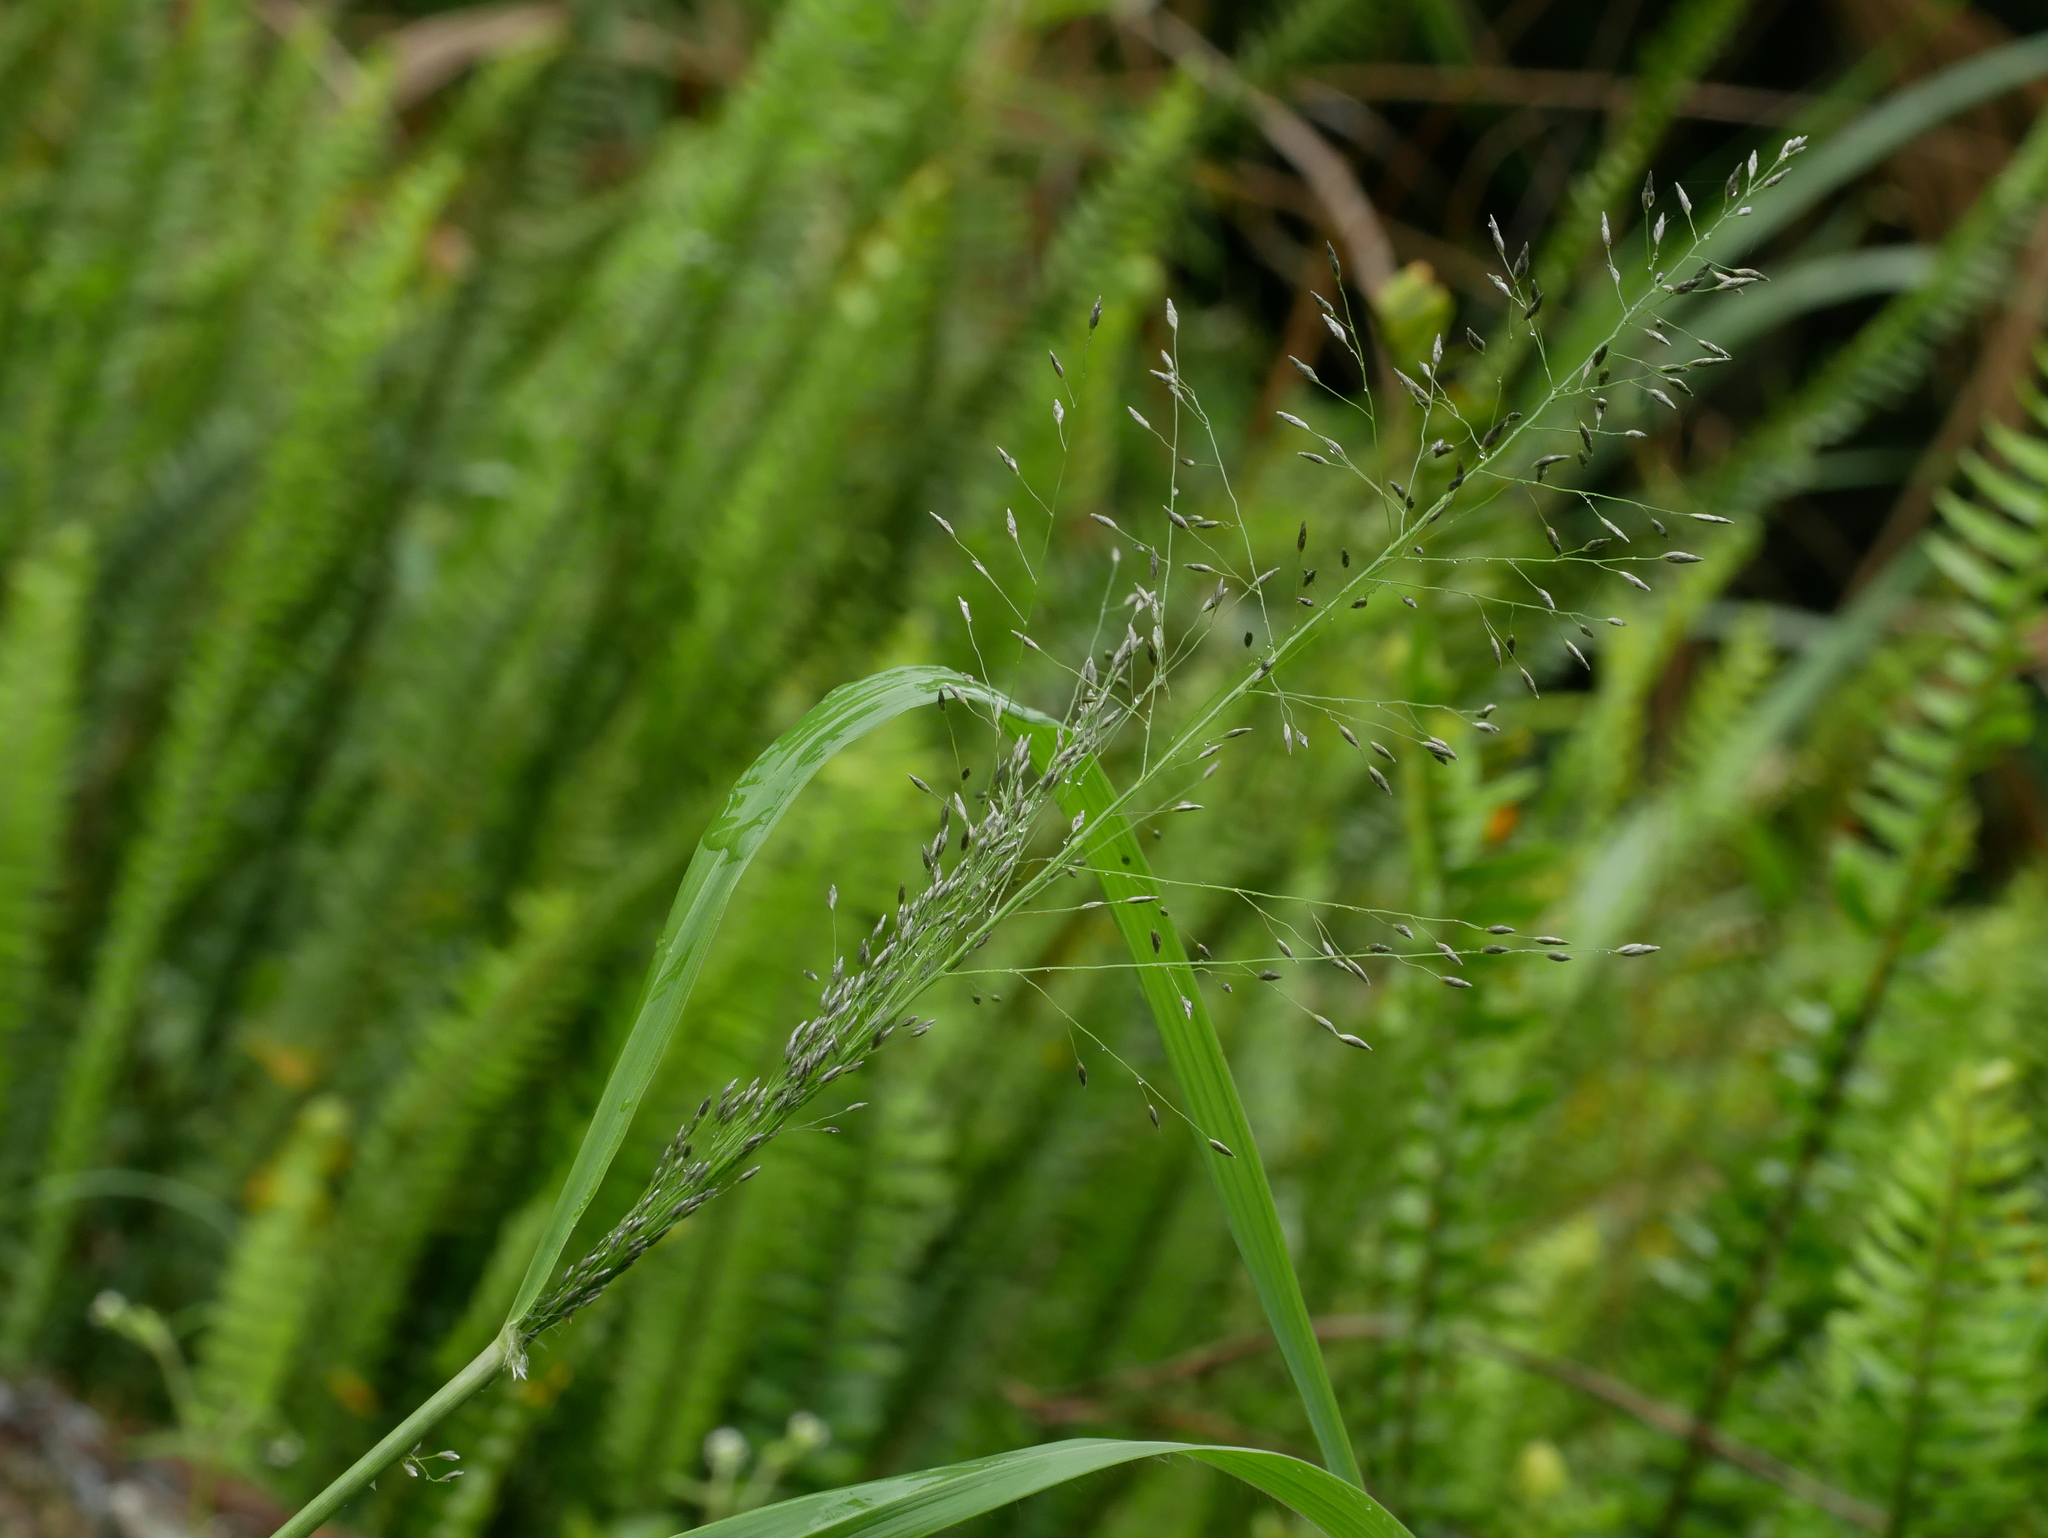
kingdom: Plantae
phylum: Tracheophyta
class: Liliopsida
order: Poales
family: Poaceae
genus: Eragrostis
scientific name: Eragrostis ferruginea
